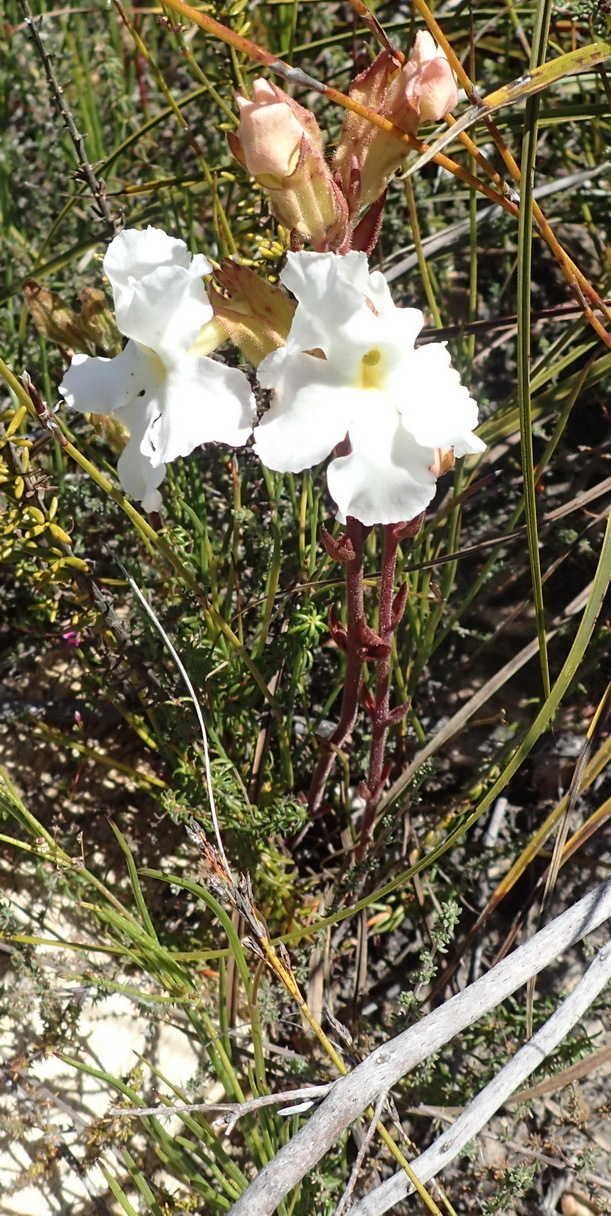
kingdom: Plantae
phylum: Tracheophyta
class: Magnoliopsida
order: Lamiales
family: Orobanchaceae
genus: Harveya
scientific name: Harveya capensis
